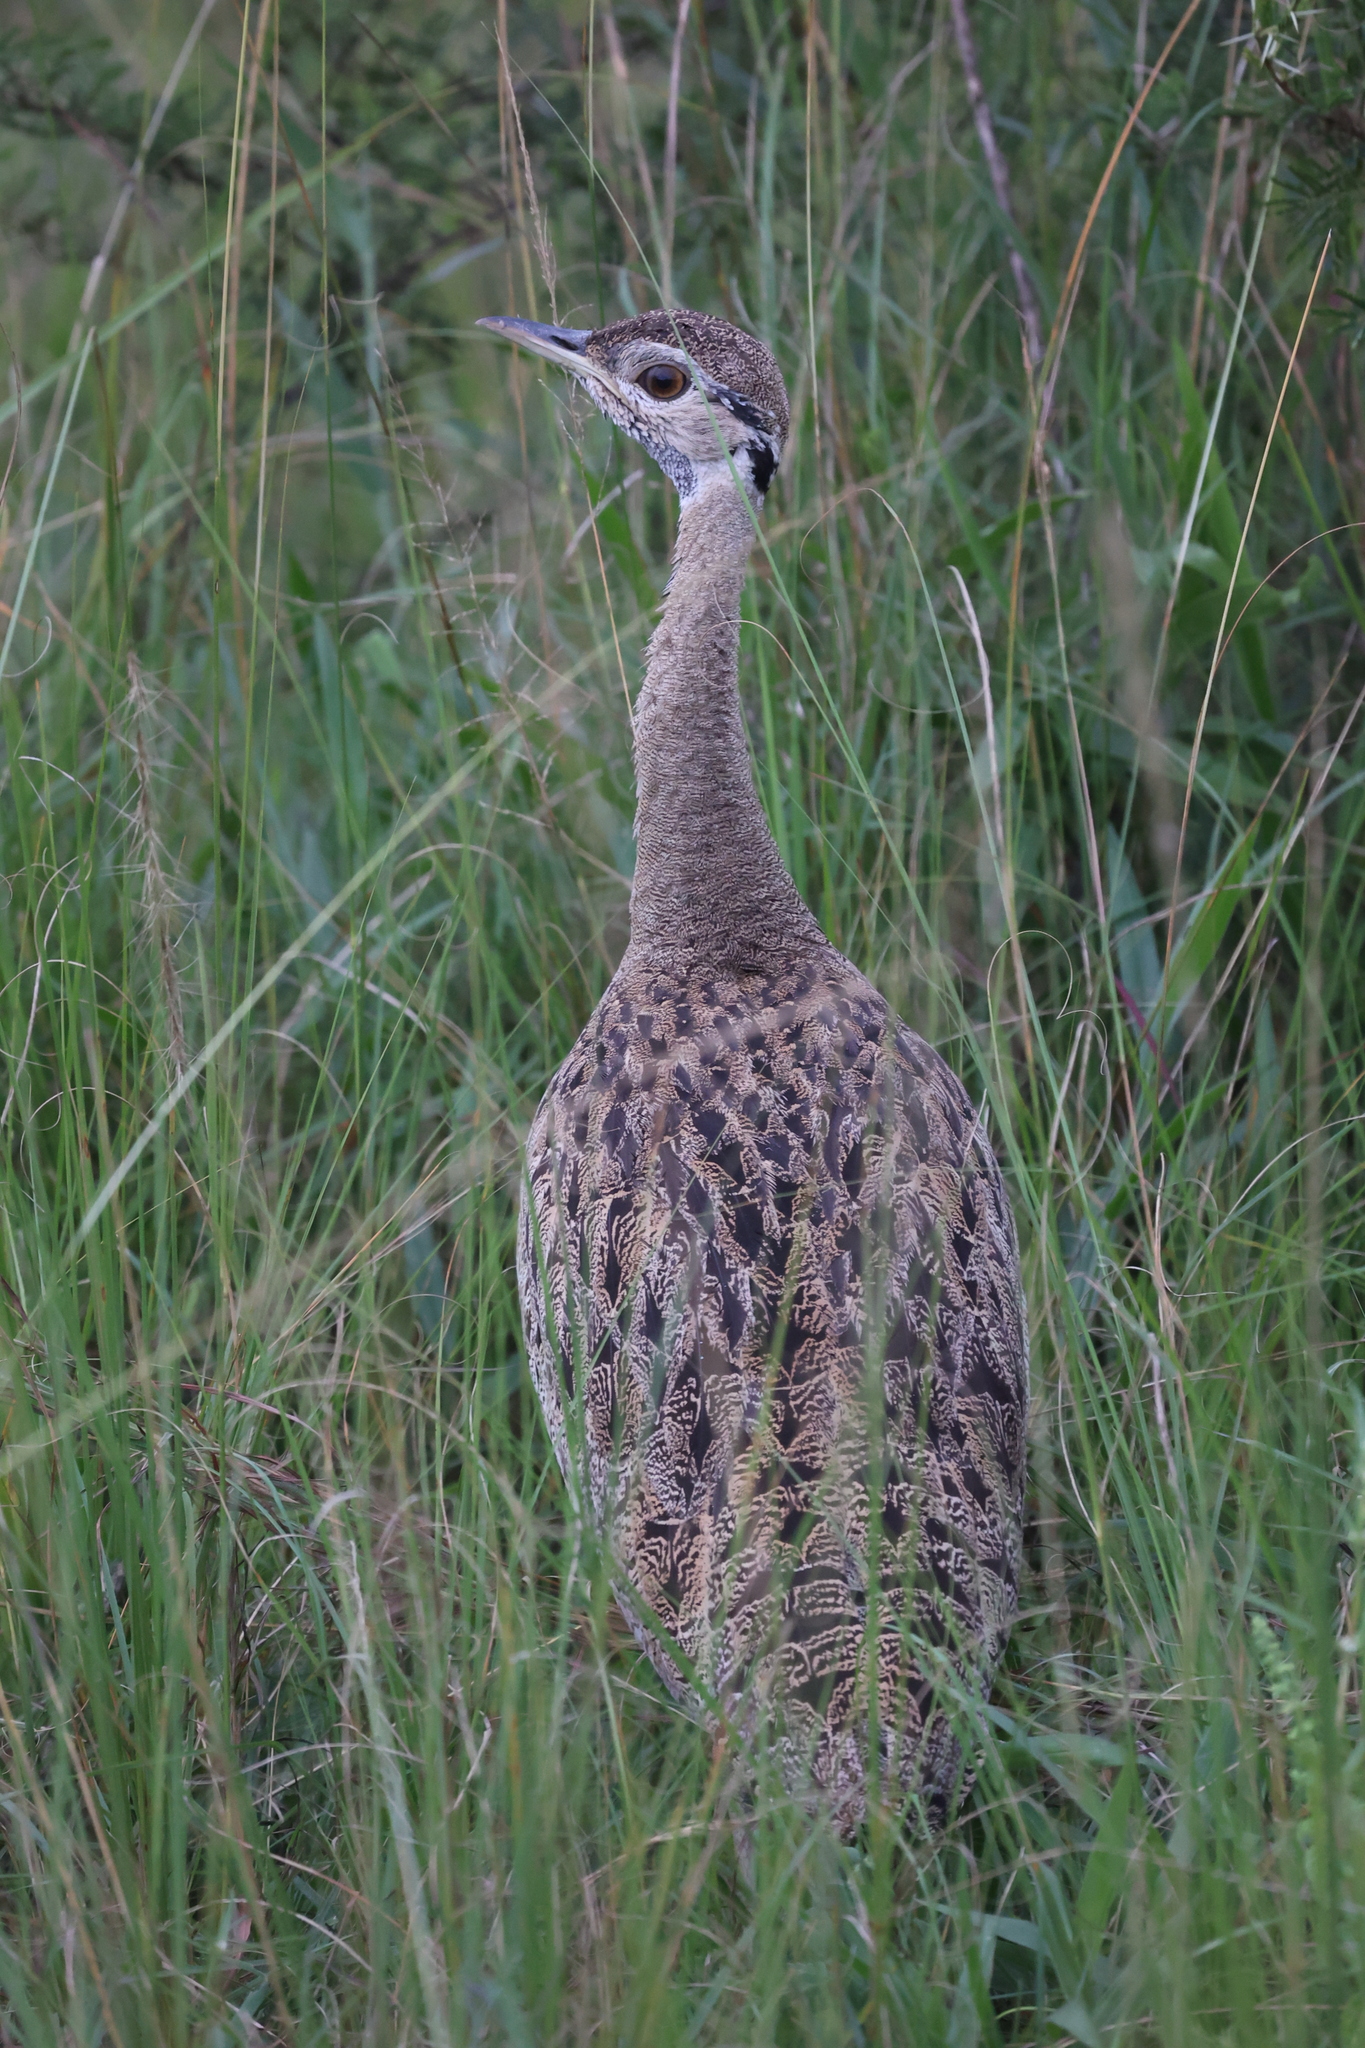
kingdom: Animalia
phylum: Chordata
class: Aves
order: Otidiformes
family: Otididae
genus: Lissotis
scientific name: Lissotis melanogaster
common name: Black-bellied bustard
